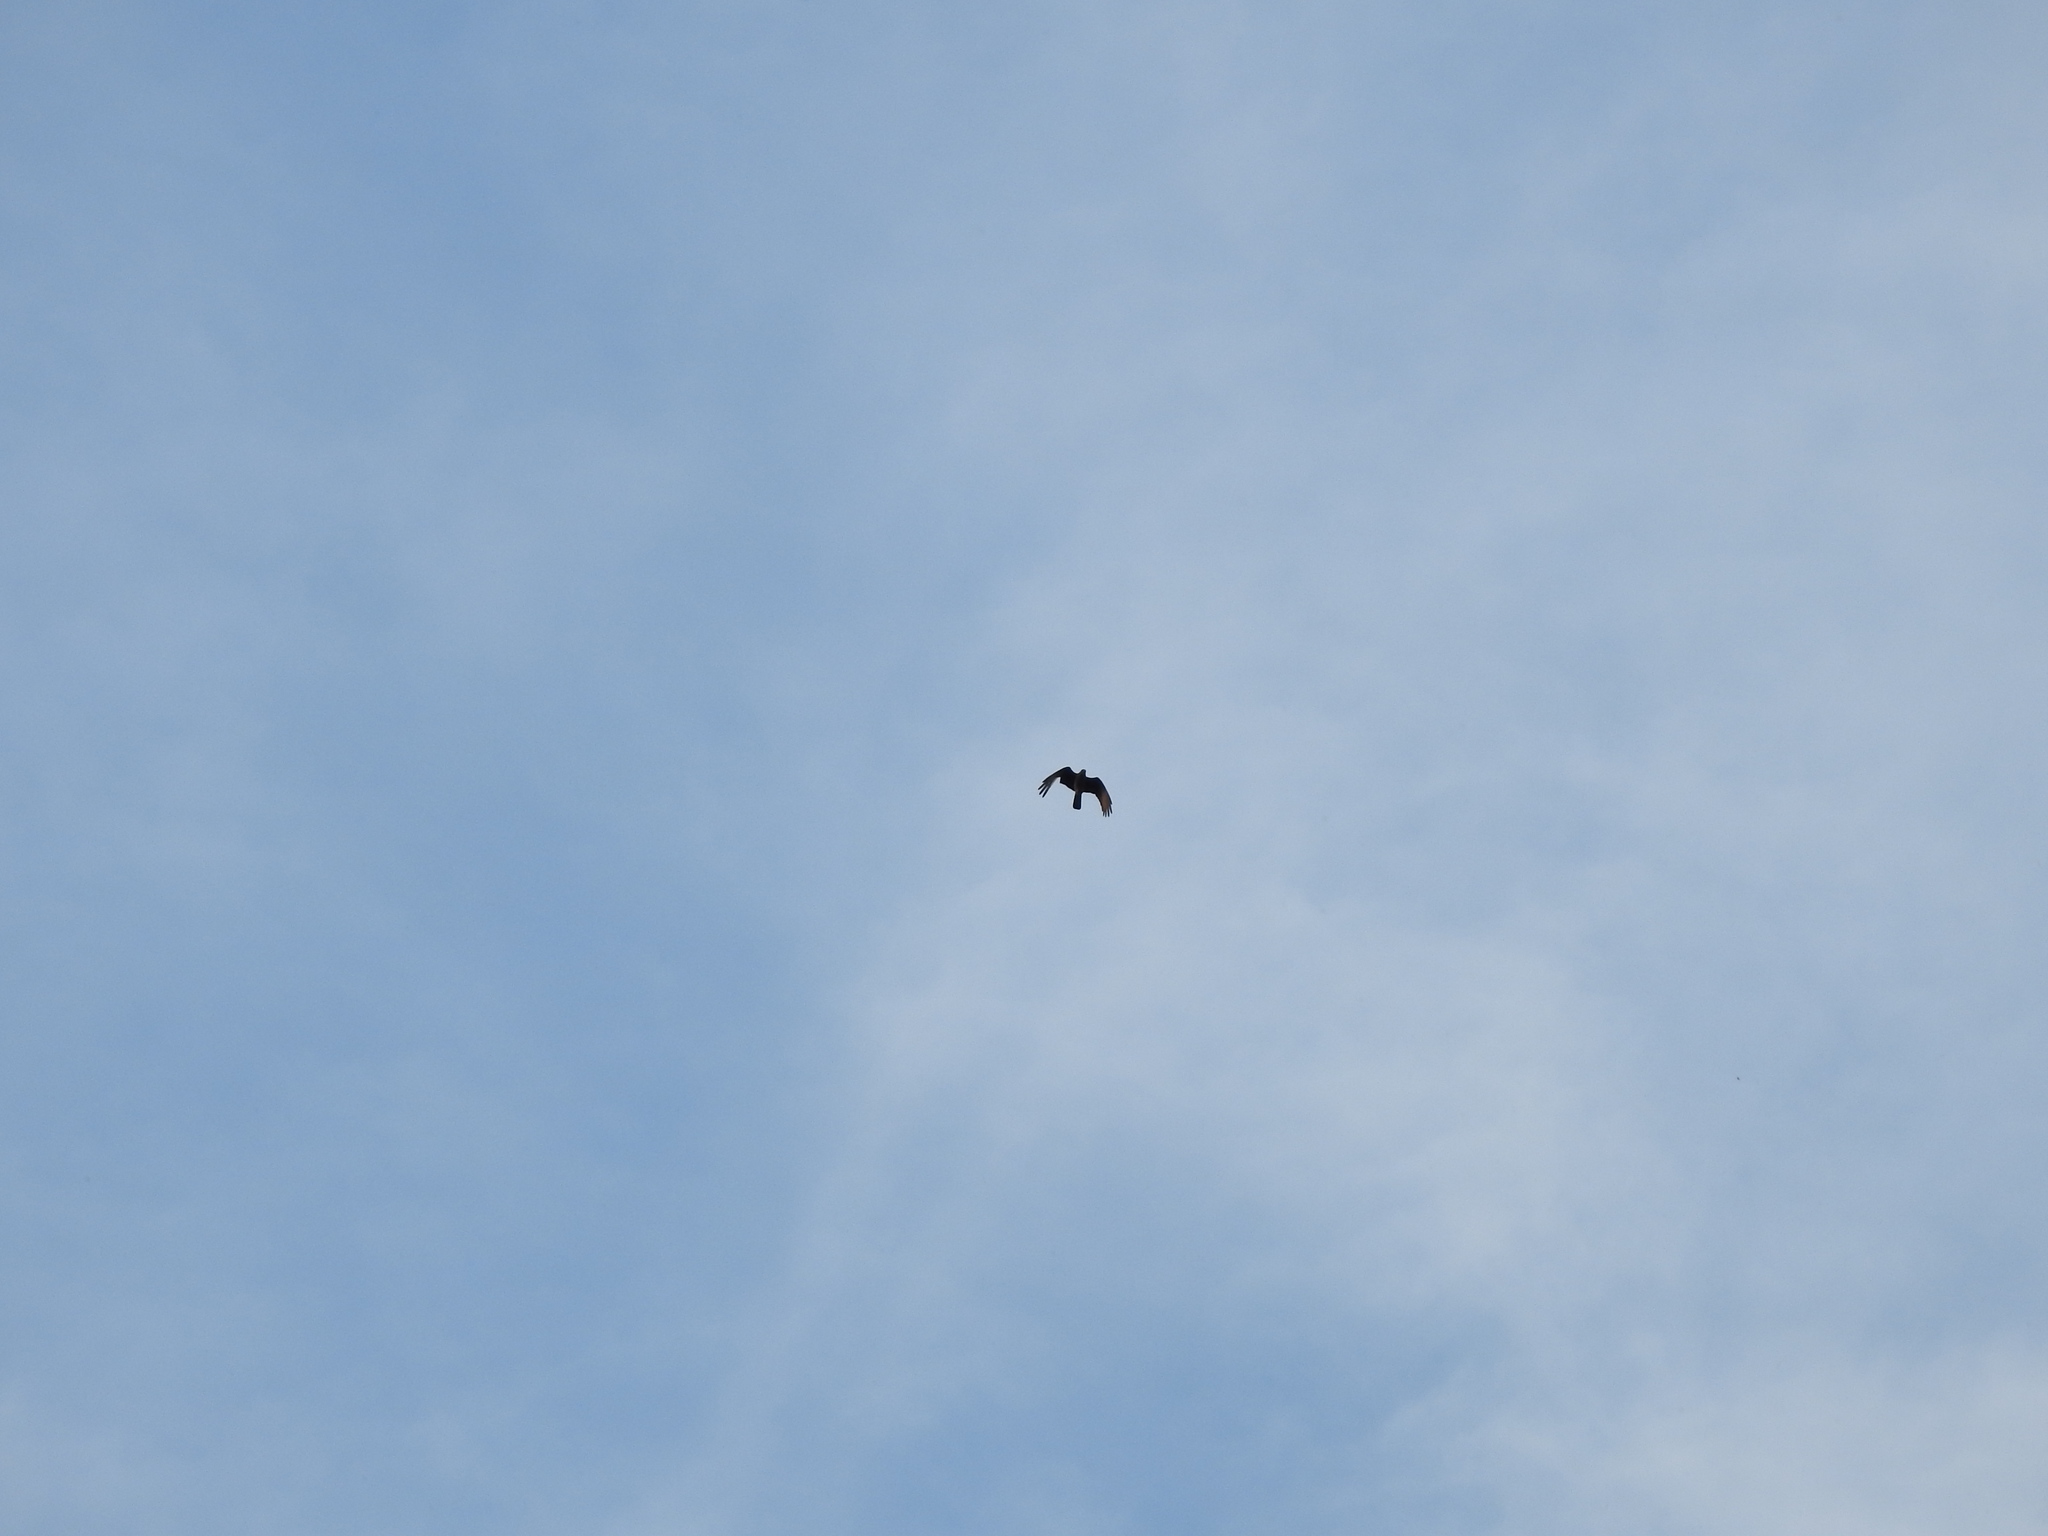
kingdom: Animalia
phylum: Chordata
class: Aves
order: Falconiformes
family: Falconidae
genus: Daptrius
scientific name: Daptrius
